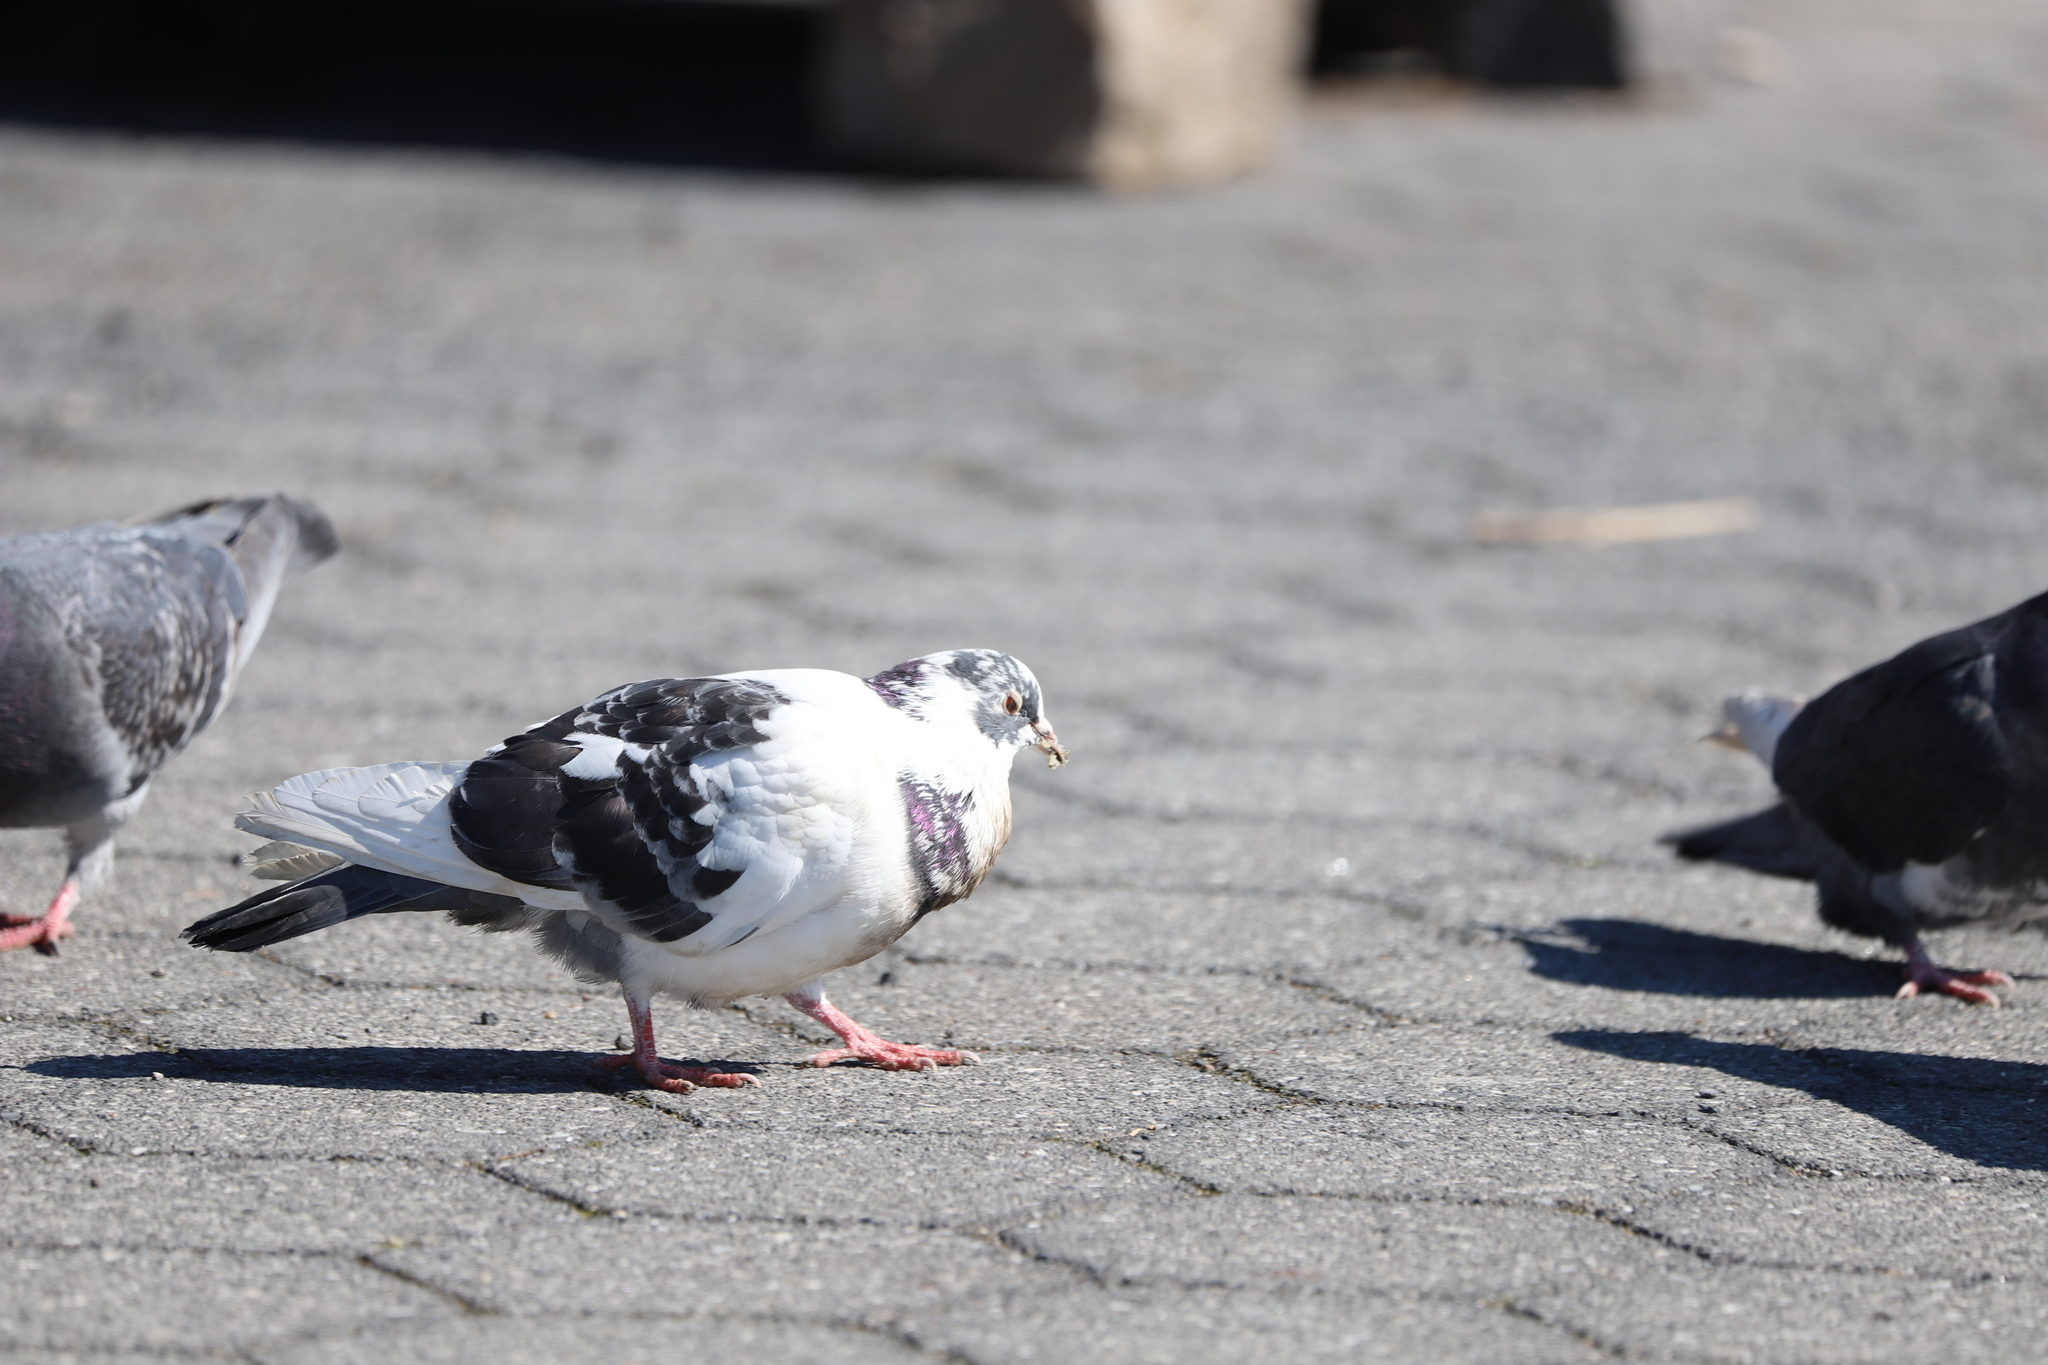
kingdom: Animalia
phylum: Chordata
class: Aves
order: Columbiformes
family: Columbidae
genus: Columba
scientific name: Columba livia
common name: Rock pigeon
